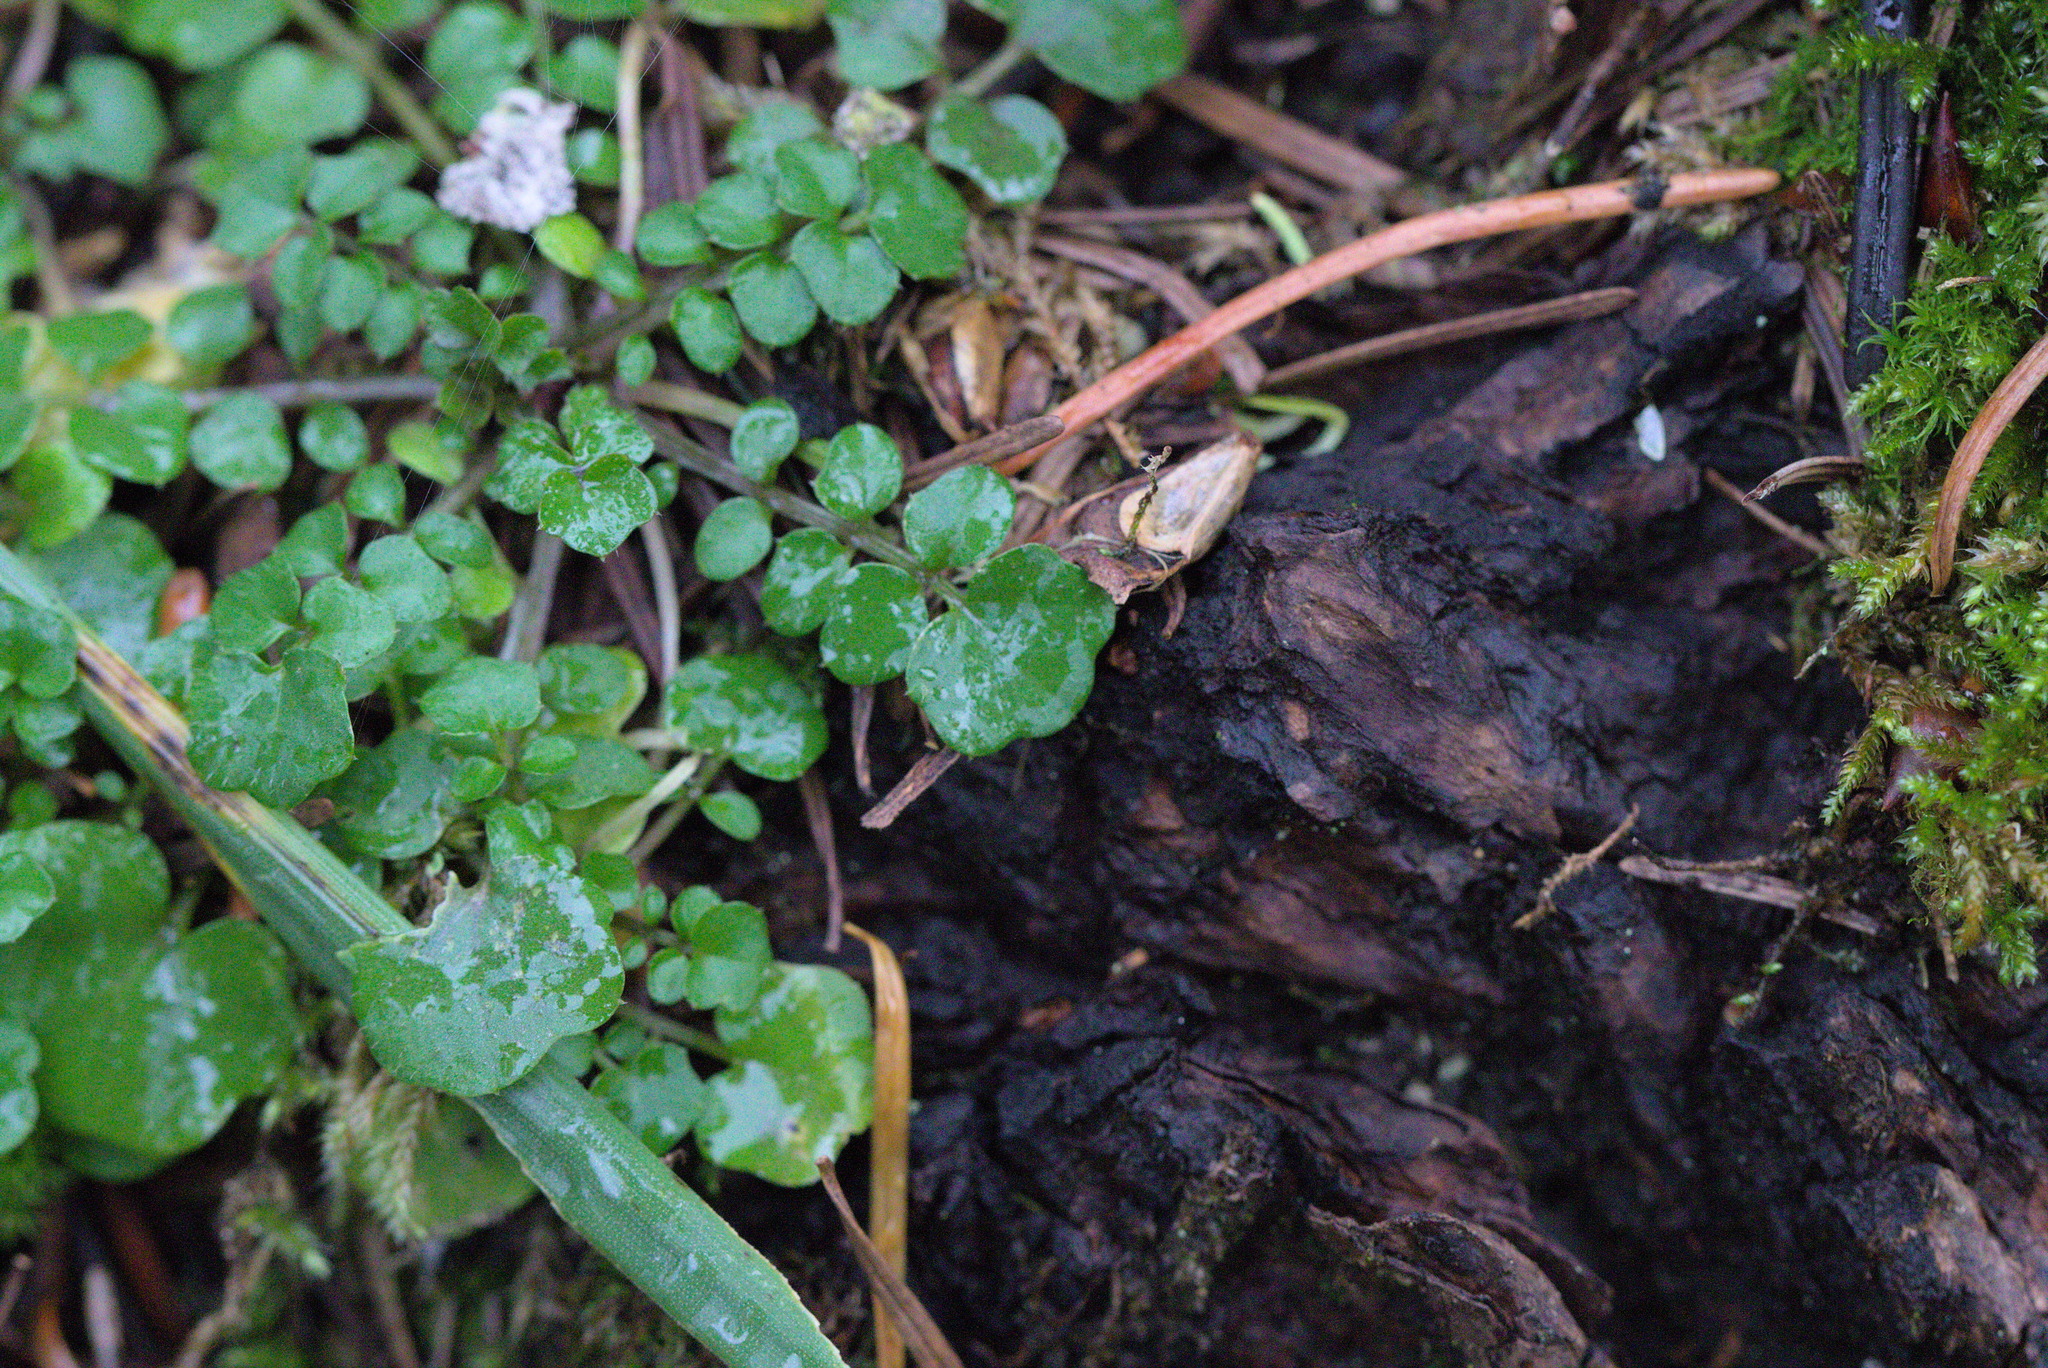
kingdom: Plantae
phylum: Tracheophyta
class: Magnoliopsida
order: Brassicales
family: Brassicaceae
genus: Cardamine
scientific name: Cardamine hirsuta
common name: Hairy bittercress
